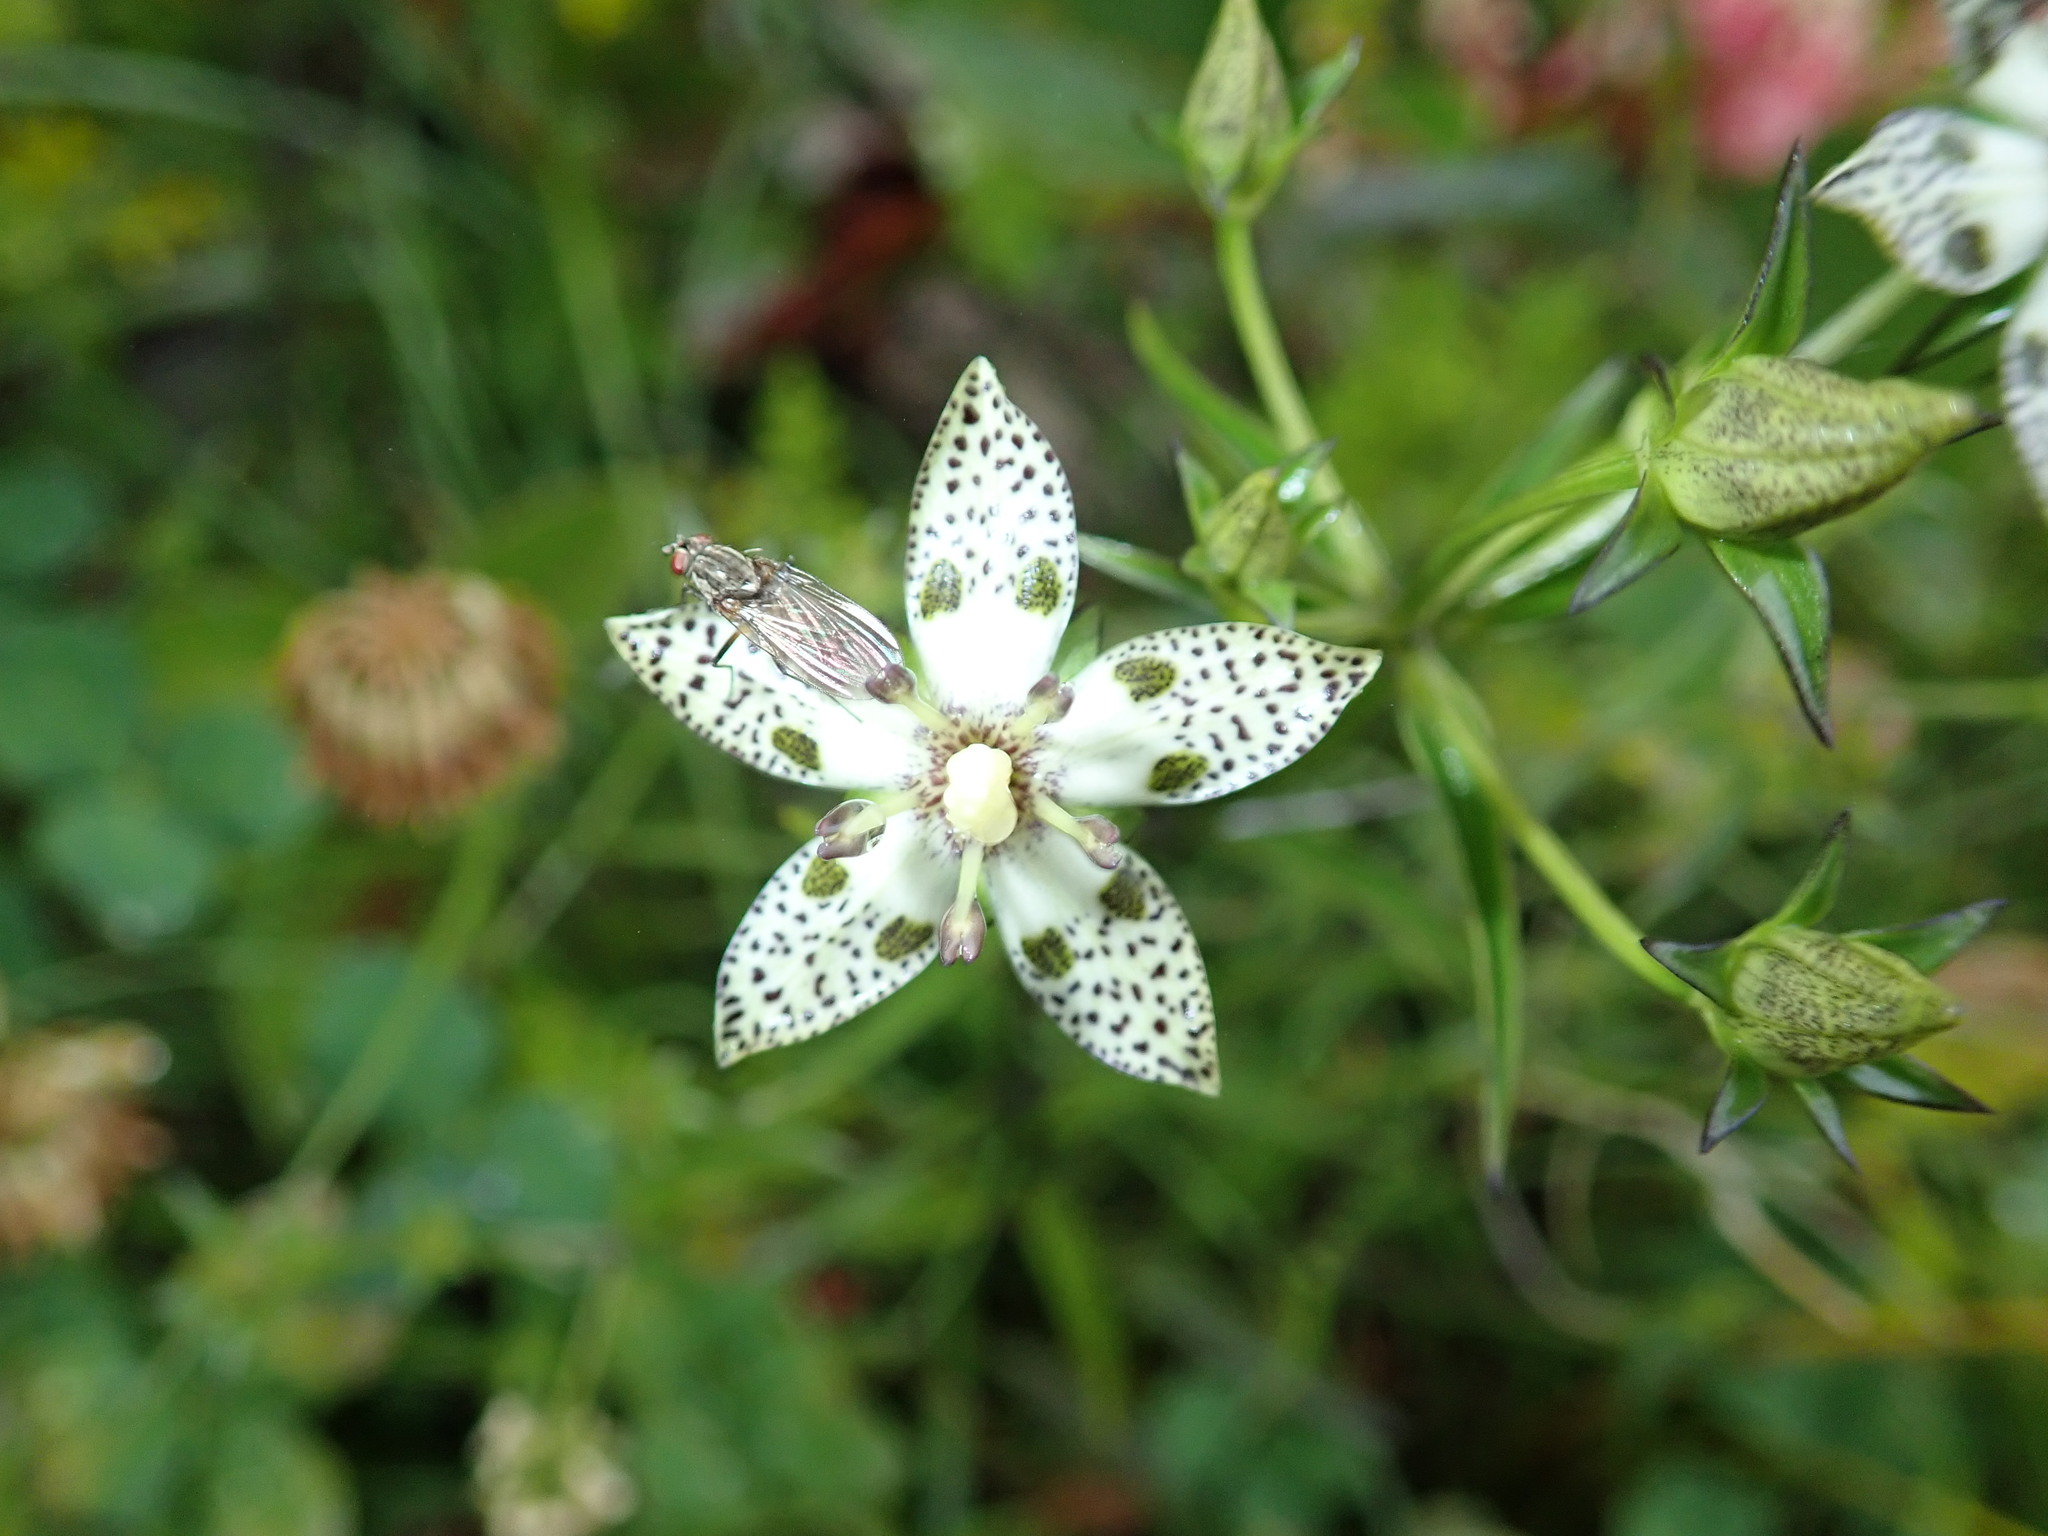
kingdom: Plantae
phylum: Tracheophyta
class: Magnoliopsida
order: Gentianales
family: Gentianaceae
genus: Swertia
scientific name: Swertia tozanensis
